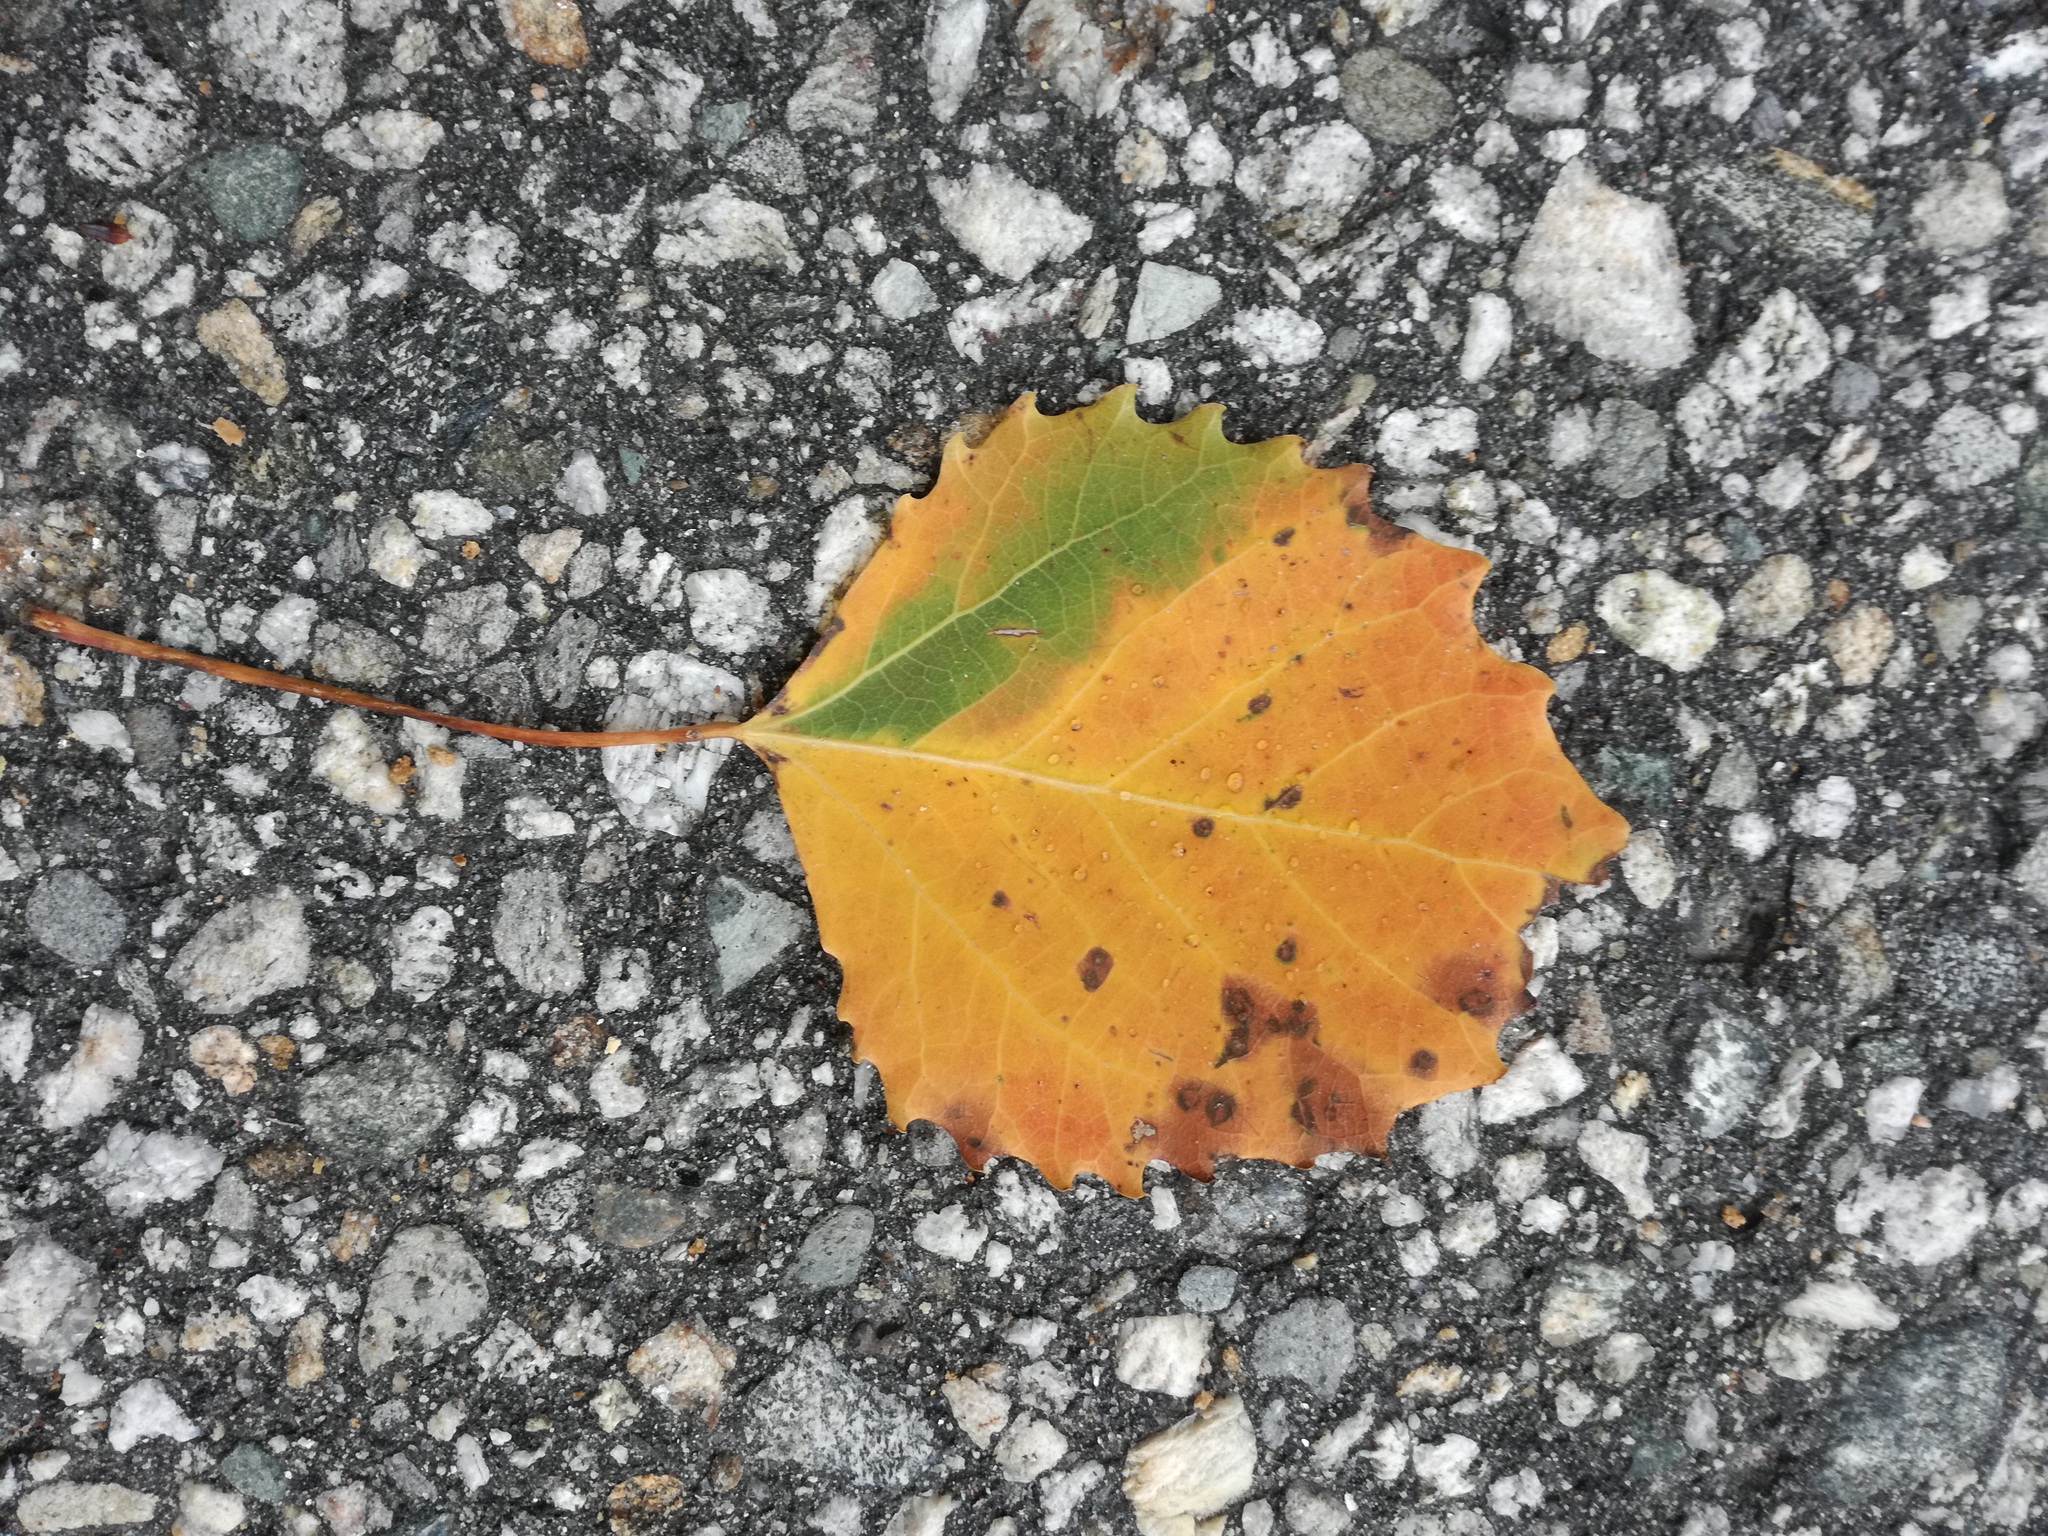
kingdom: Plantae
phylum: Tracheophyta
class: Magnoliopsida
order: Malpighiales
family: Salicaceae
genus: Populus
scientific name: Populus grandidentata
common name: Bigtooth aspen
